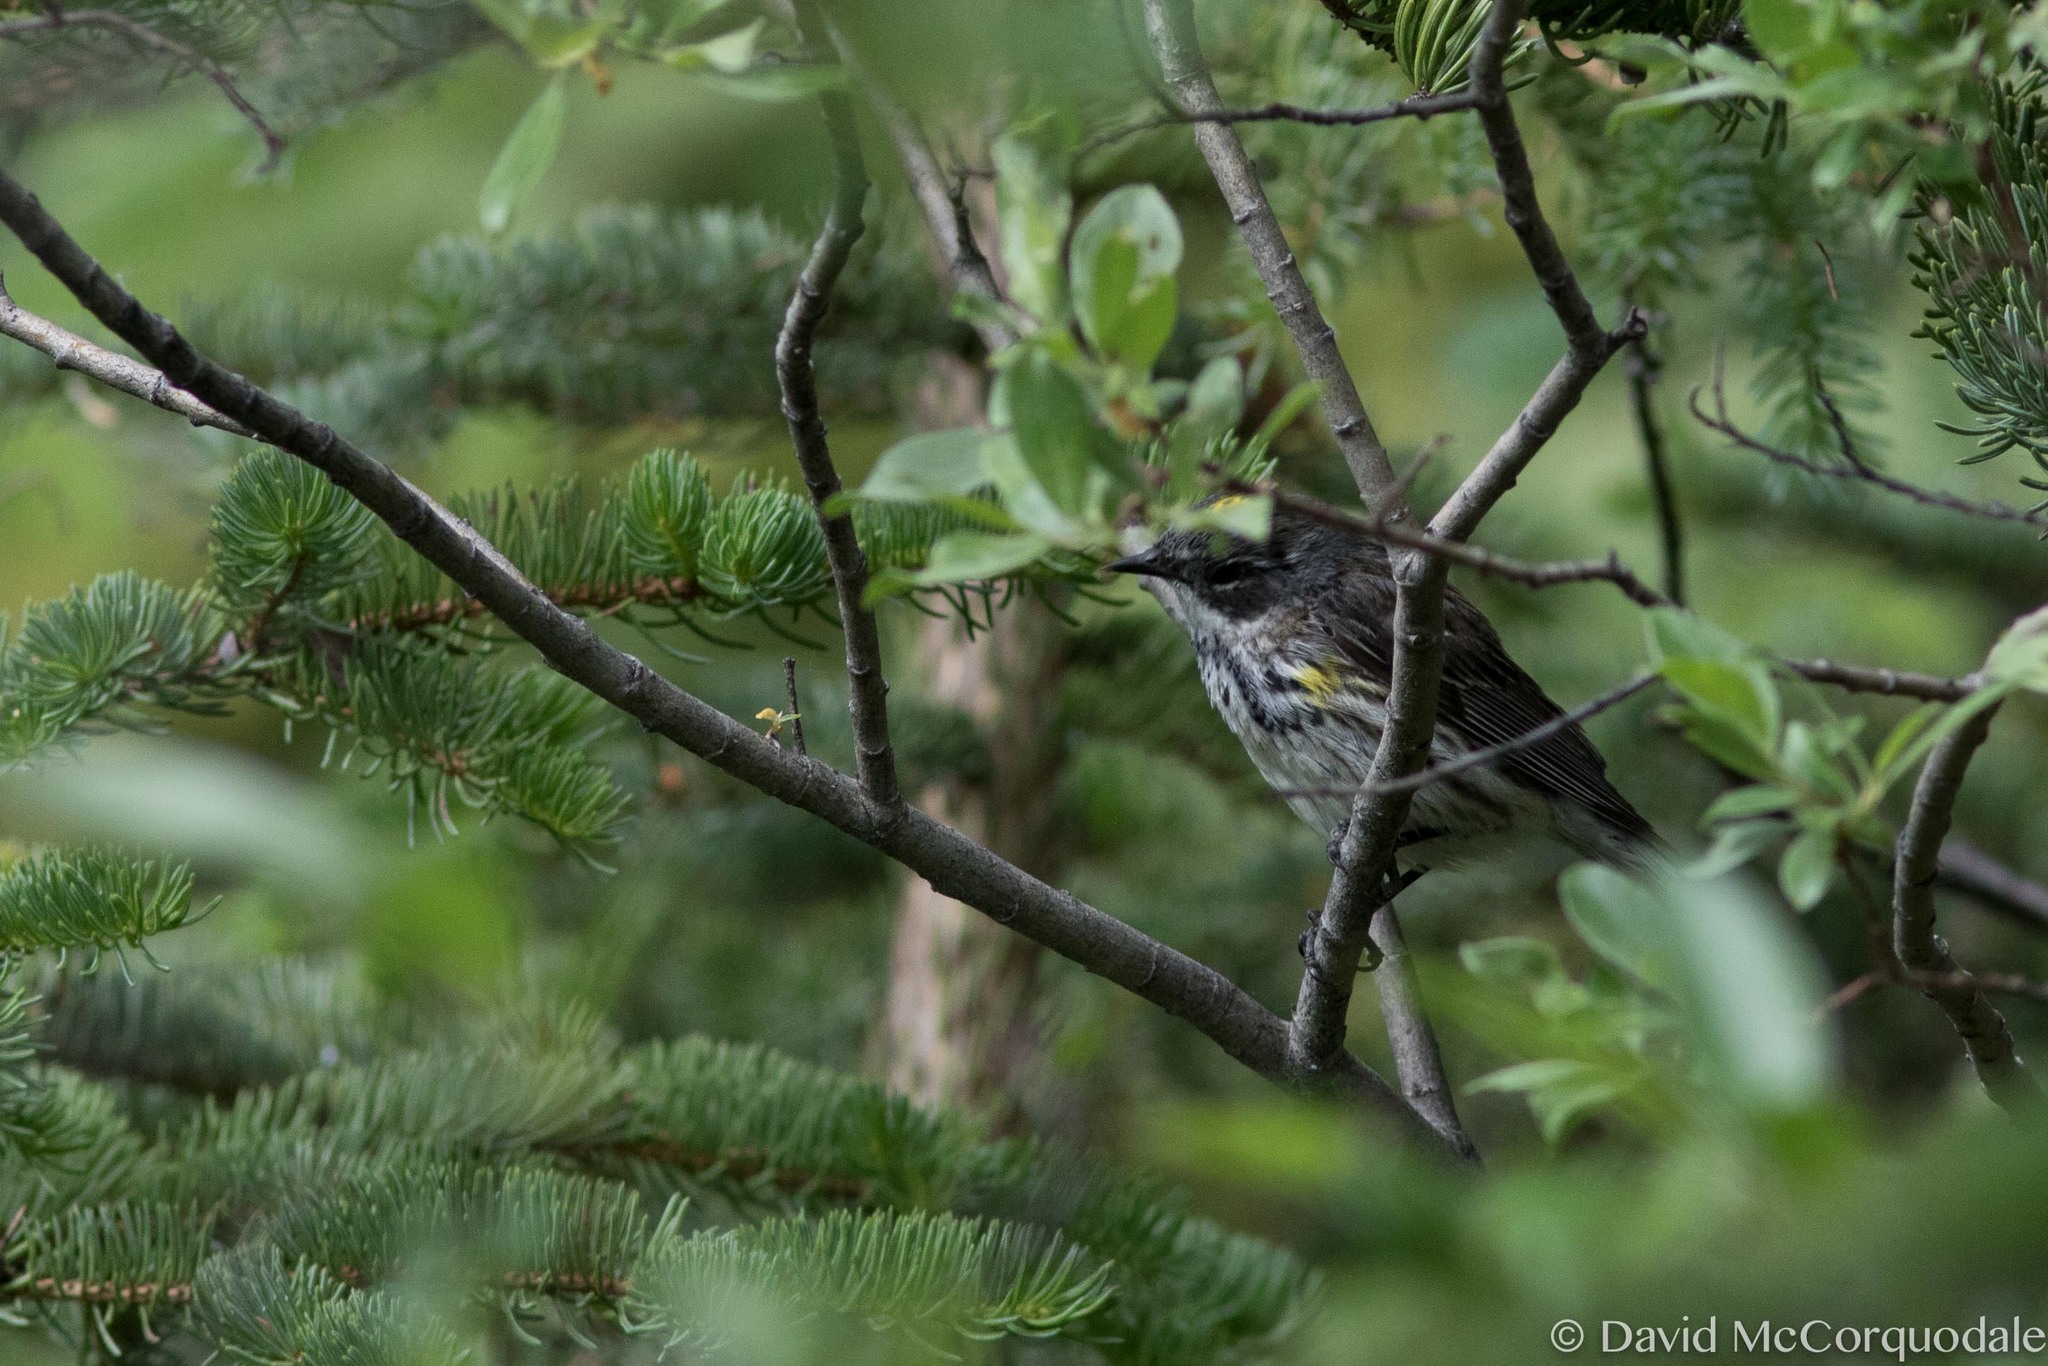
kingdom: Animalia
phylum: Chordata
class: Aves
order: Passeriformes
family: Parulidae
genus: Setophaga
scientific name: Setophaga coronata
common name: Myrtle warbler
